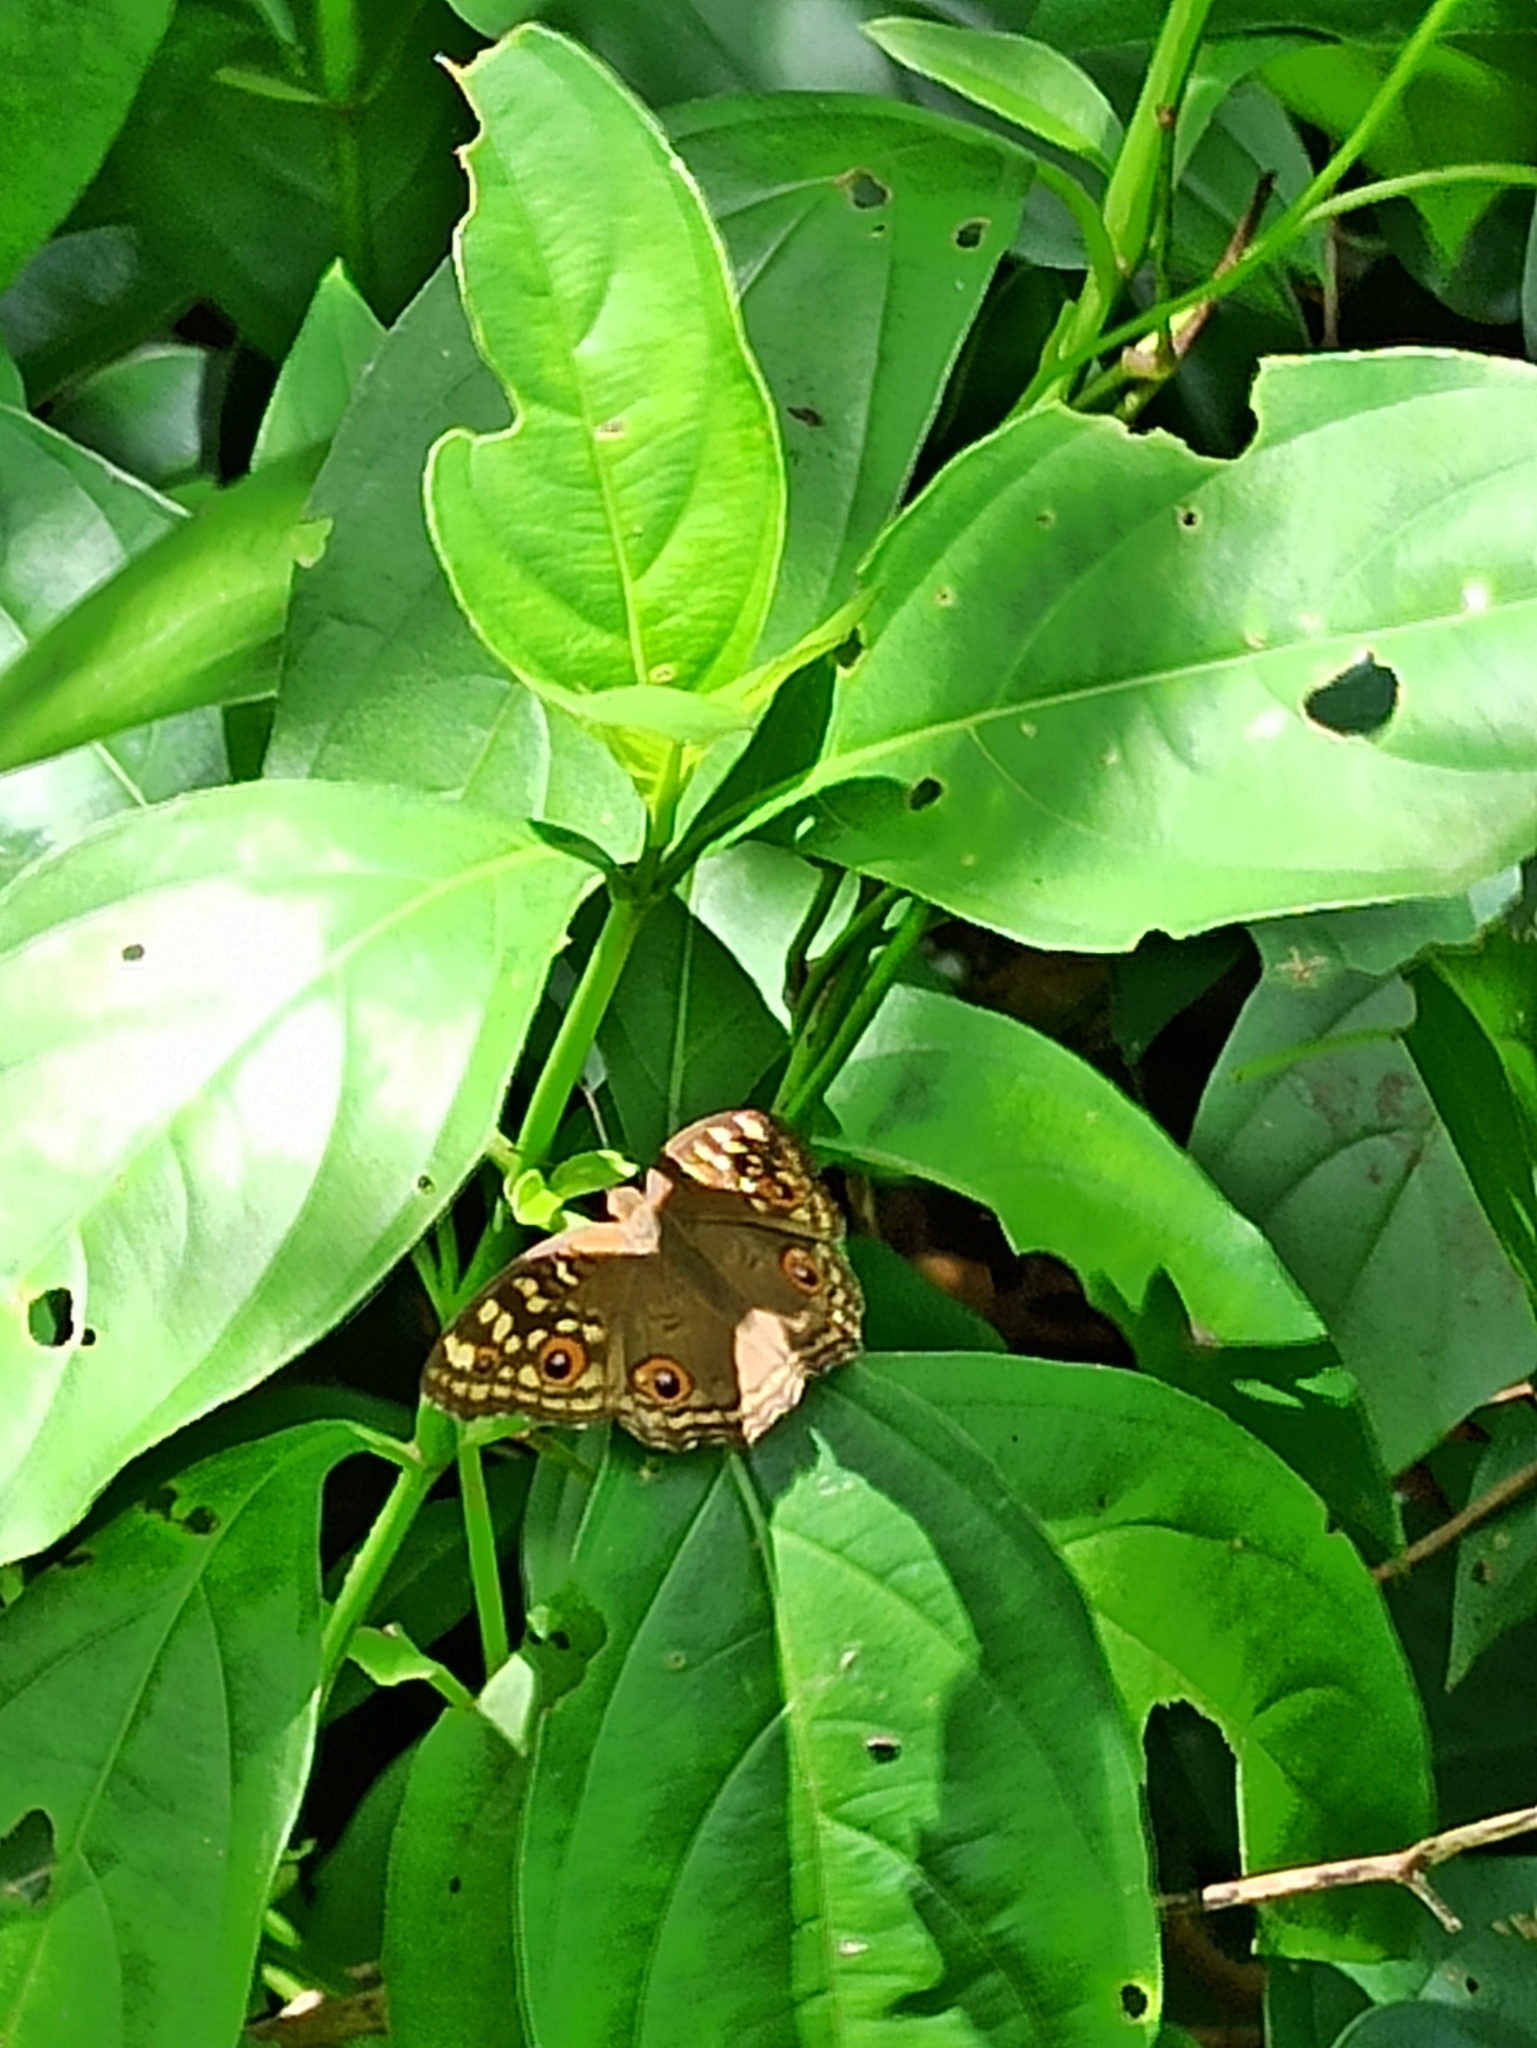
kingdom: Animalia
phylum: Arthropoda
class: Insecta
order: Lepidoptera
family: Nymphalidae
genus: Junonia
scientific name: Junonia lemonias
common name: Lemon pansy
